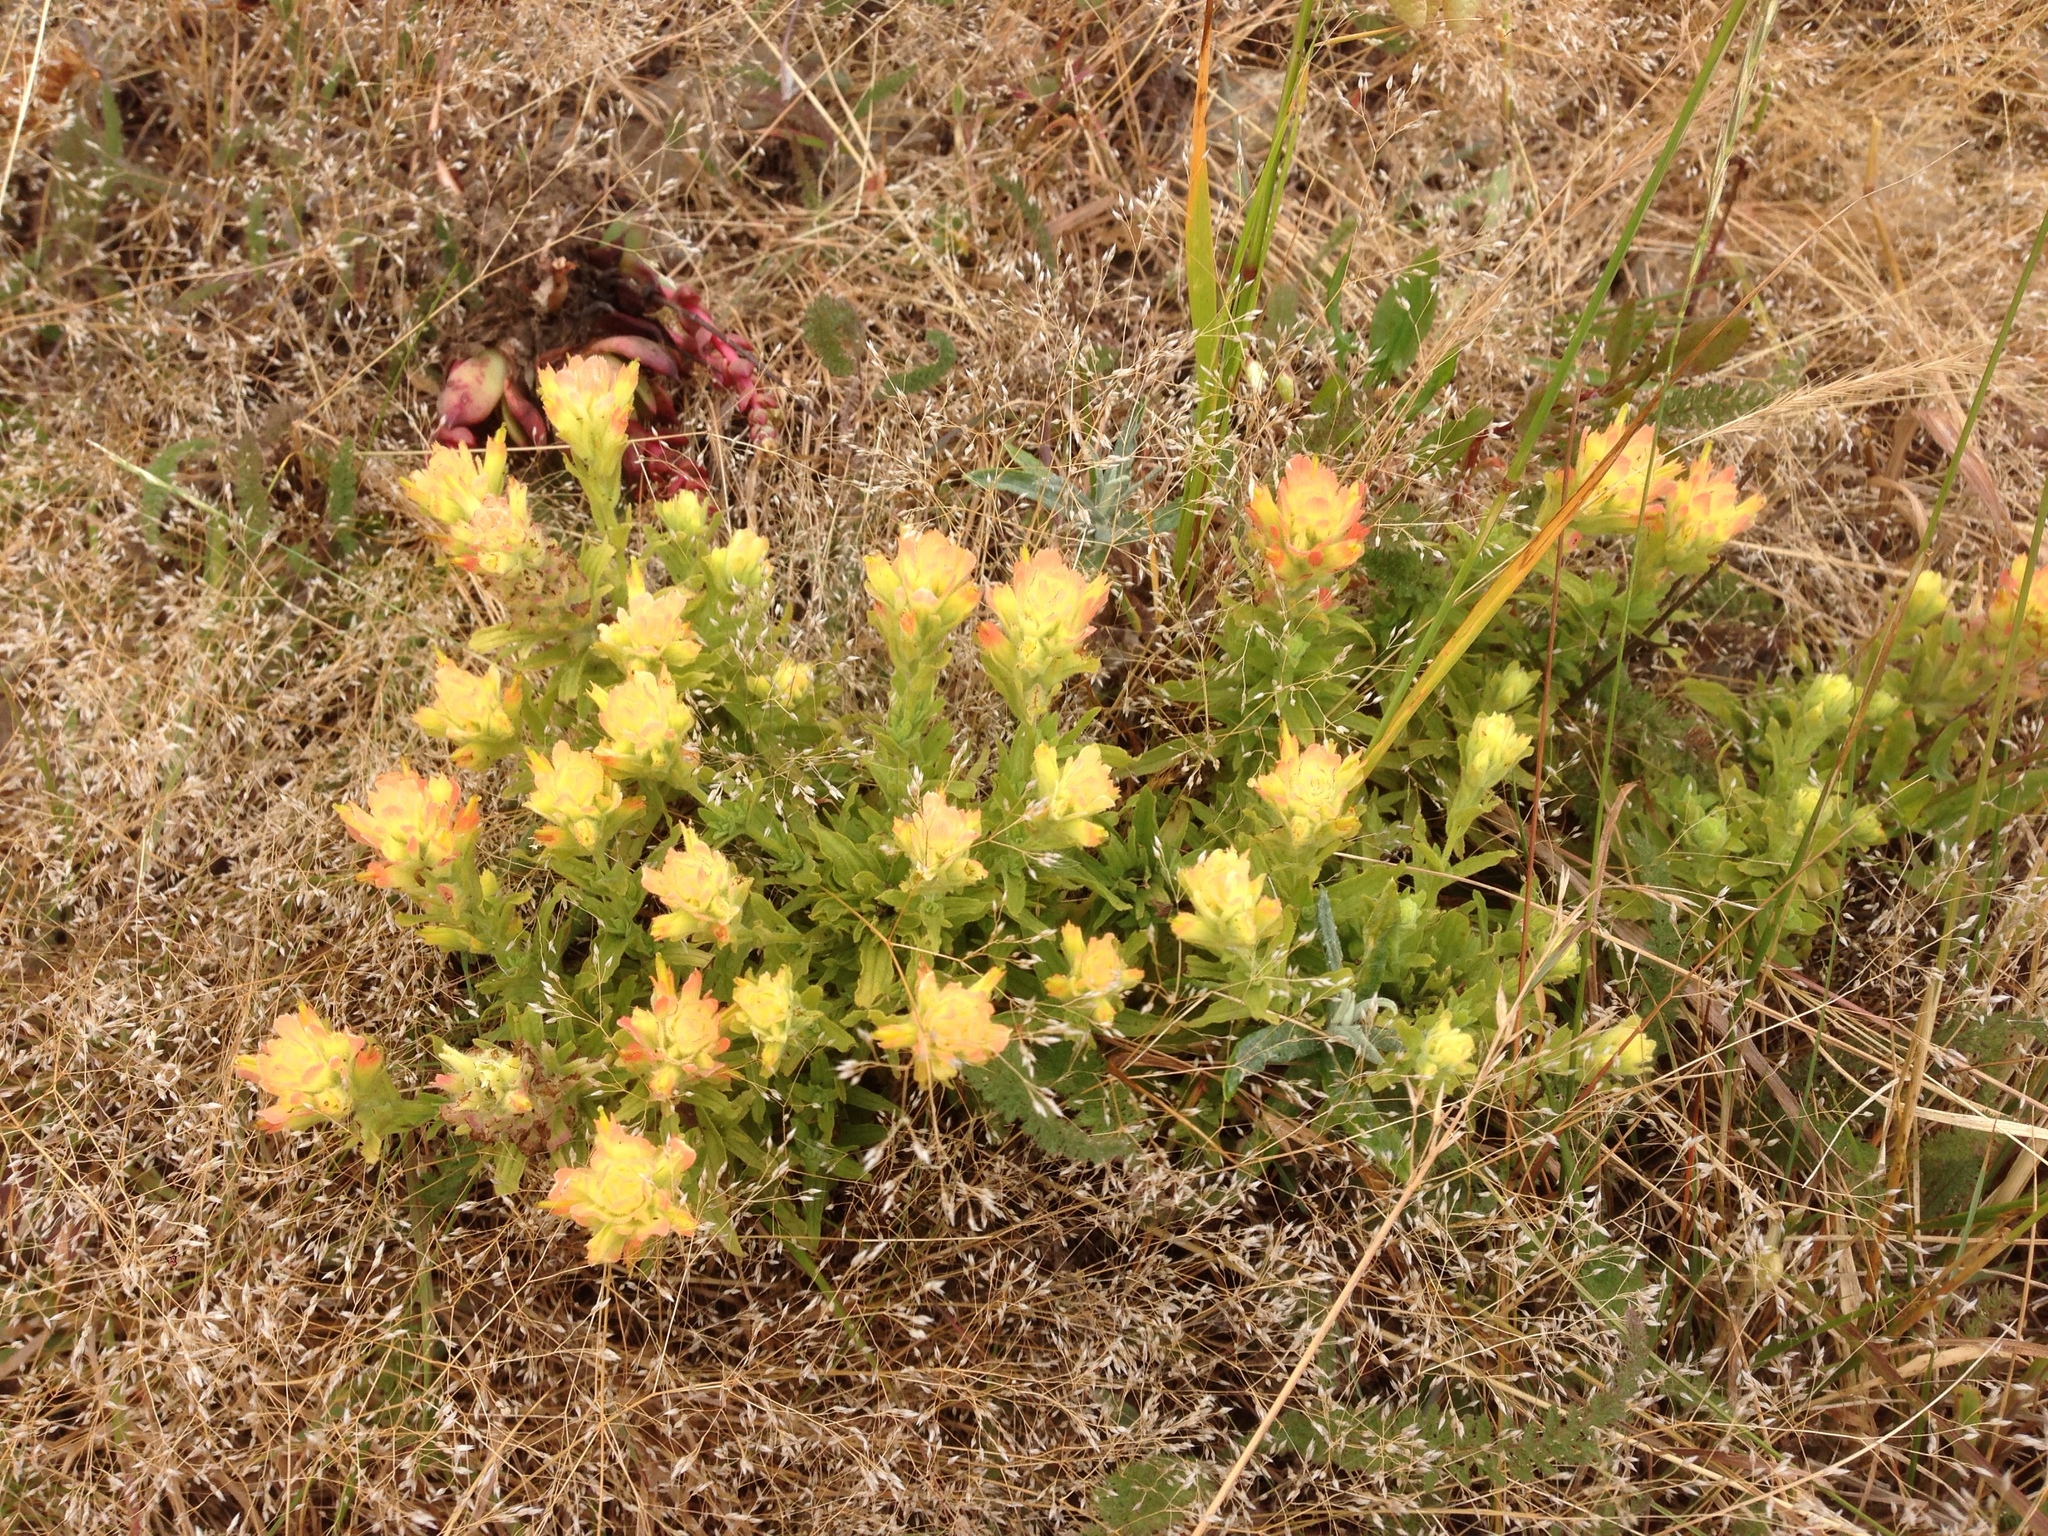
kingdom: Plantae
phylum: Tracheophyta
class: Magnoliopsida
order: Lamiales
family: Orobanchaceae
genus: Castilleja
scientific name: Castilleja wightii
